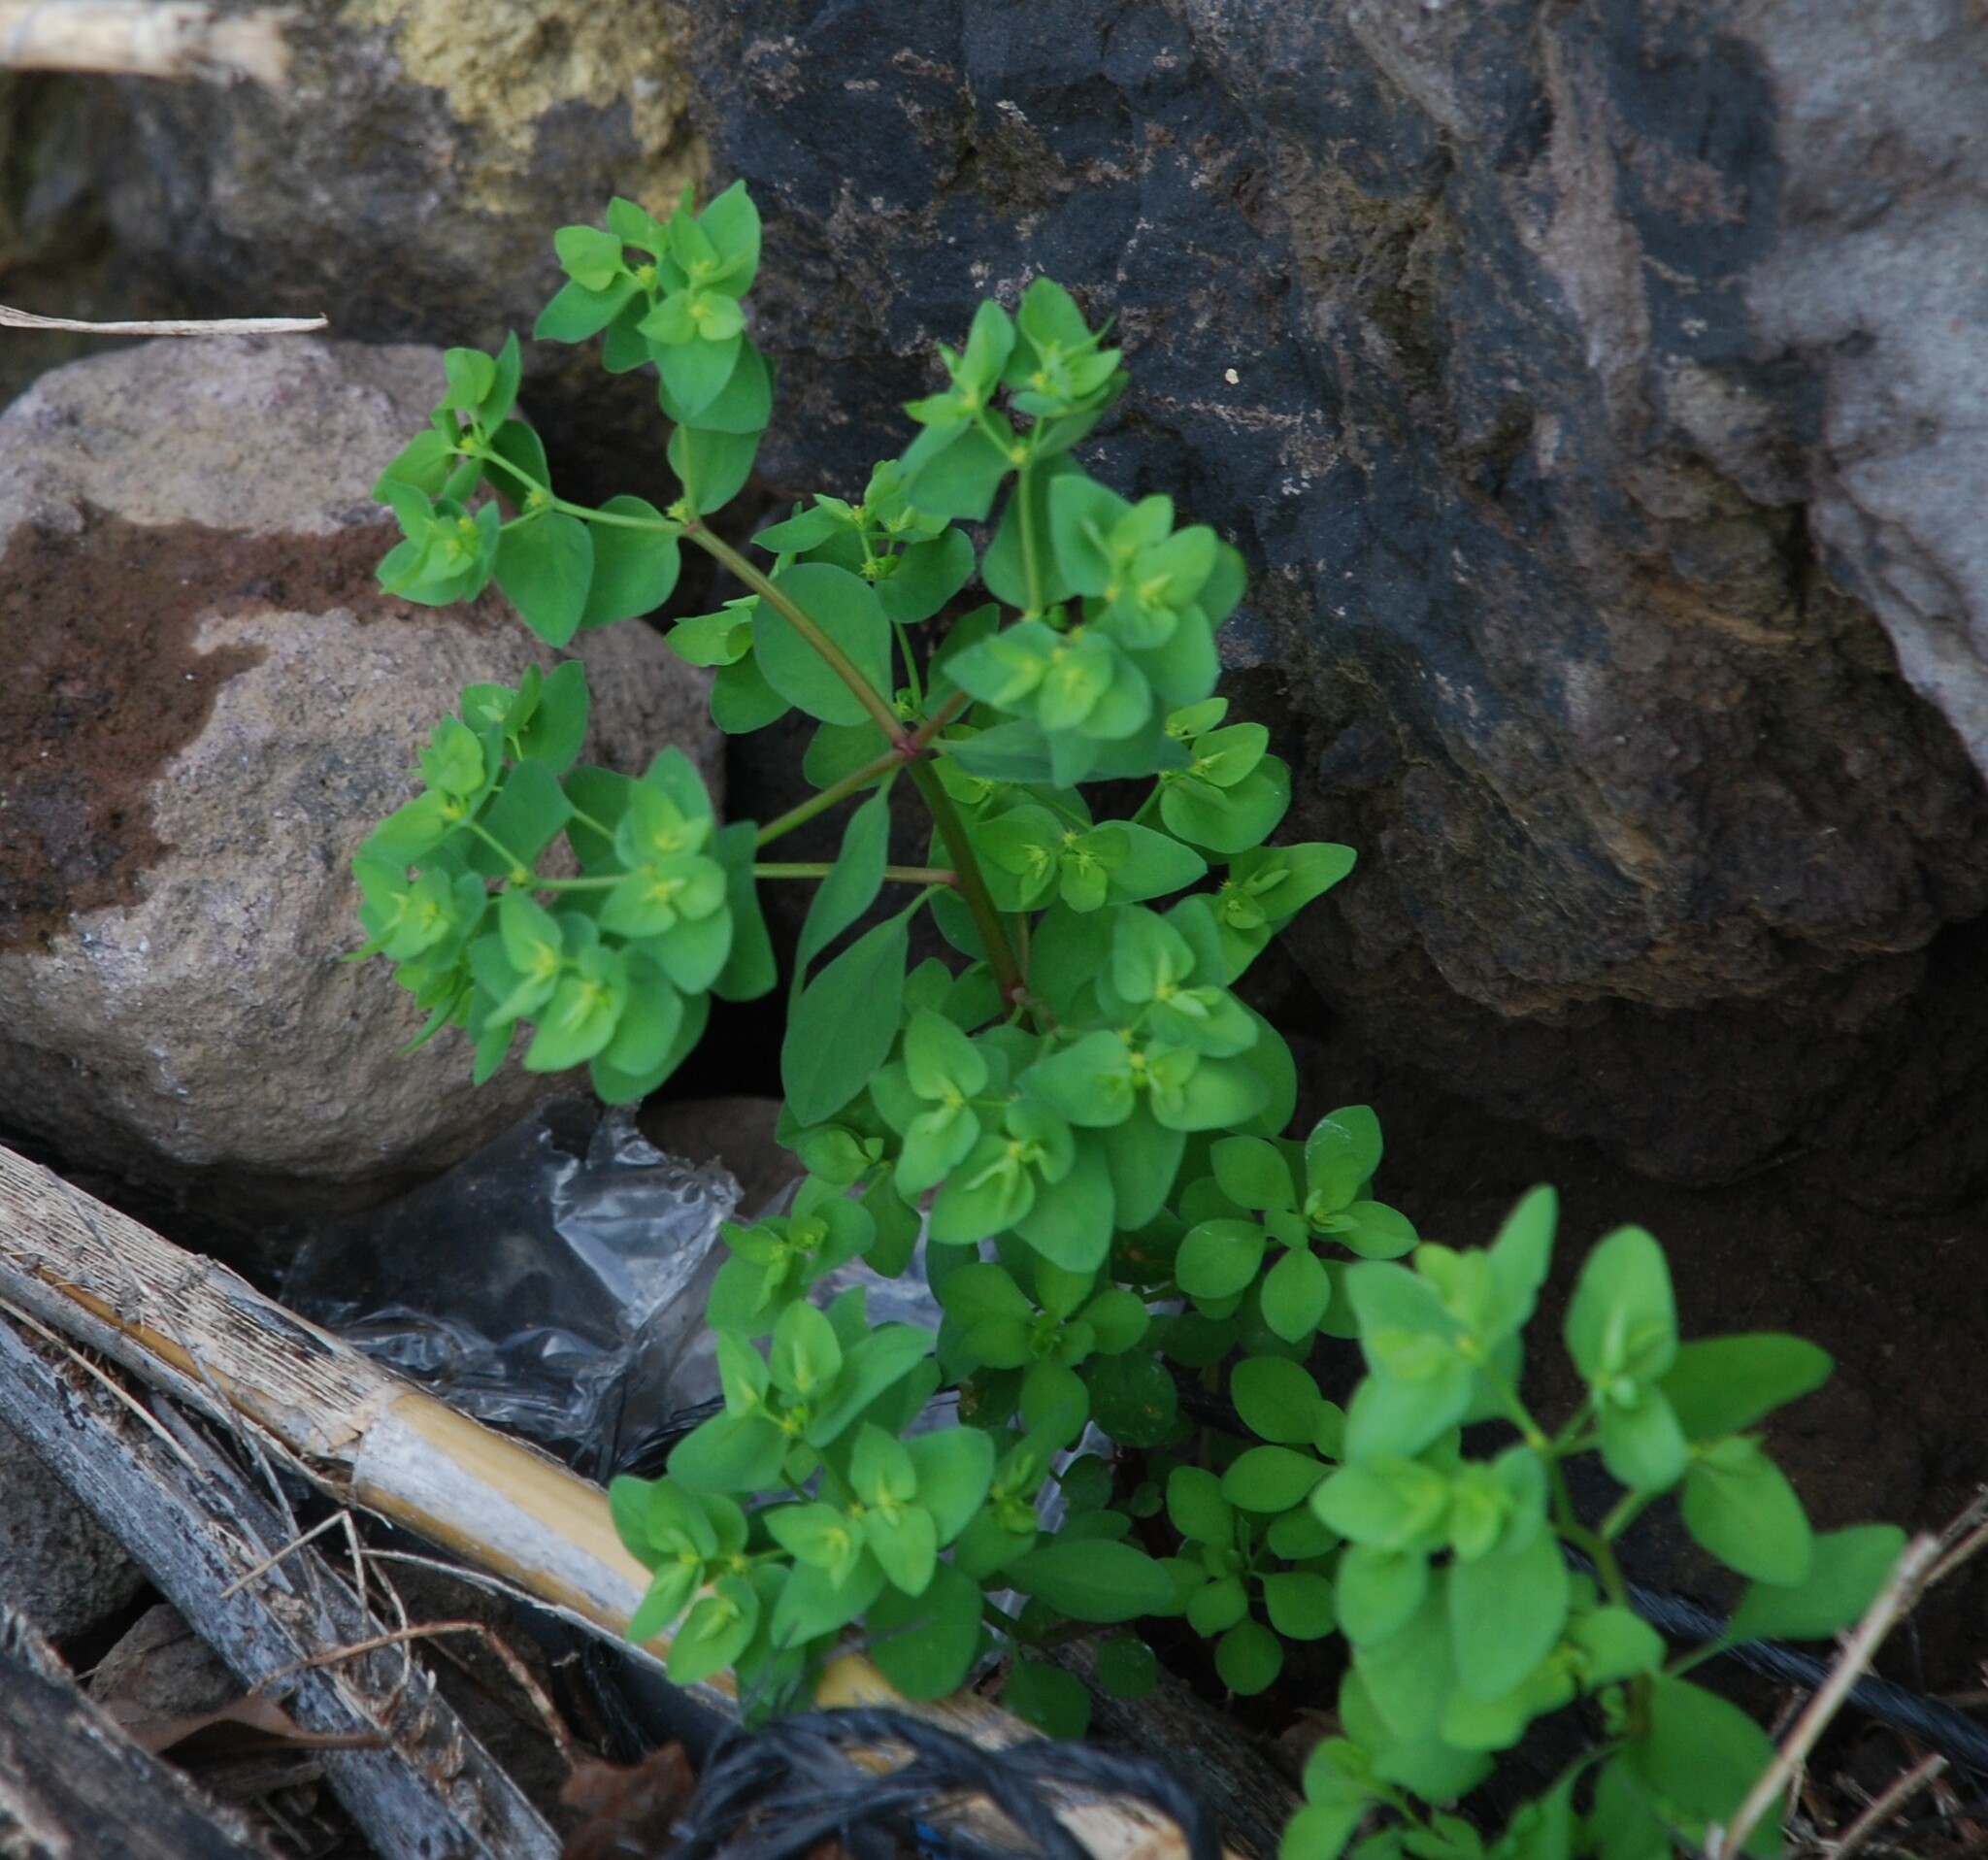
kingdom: Plantae
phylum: Tracheophyta
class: Magnoliopsida
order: Malpighiales
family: Euphorbiaceae
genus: Euphorbia
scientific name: Euphorbia peplus
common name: Petty spurge
